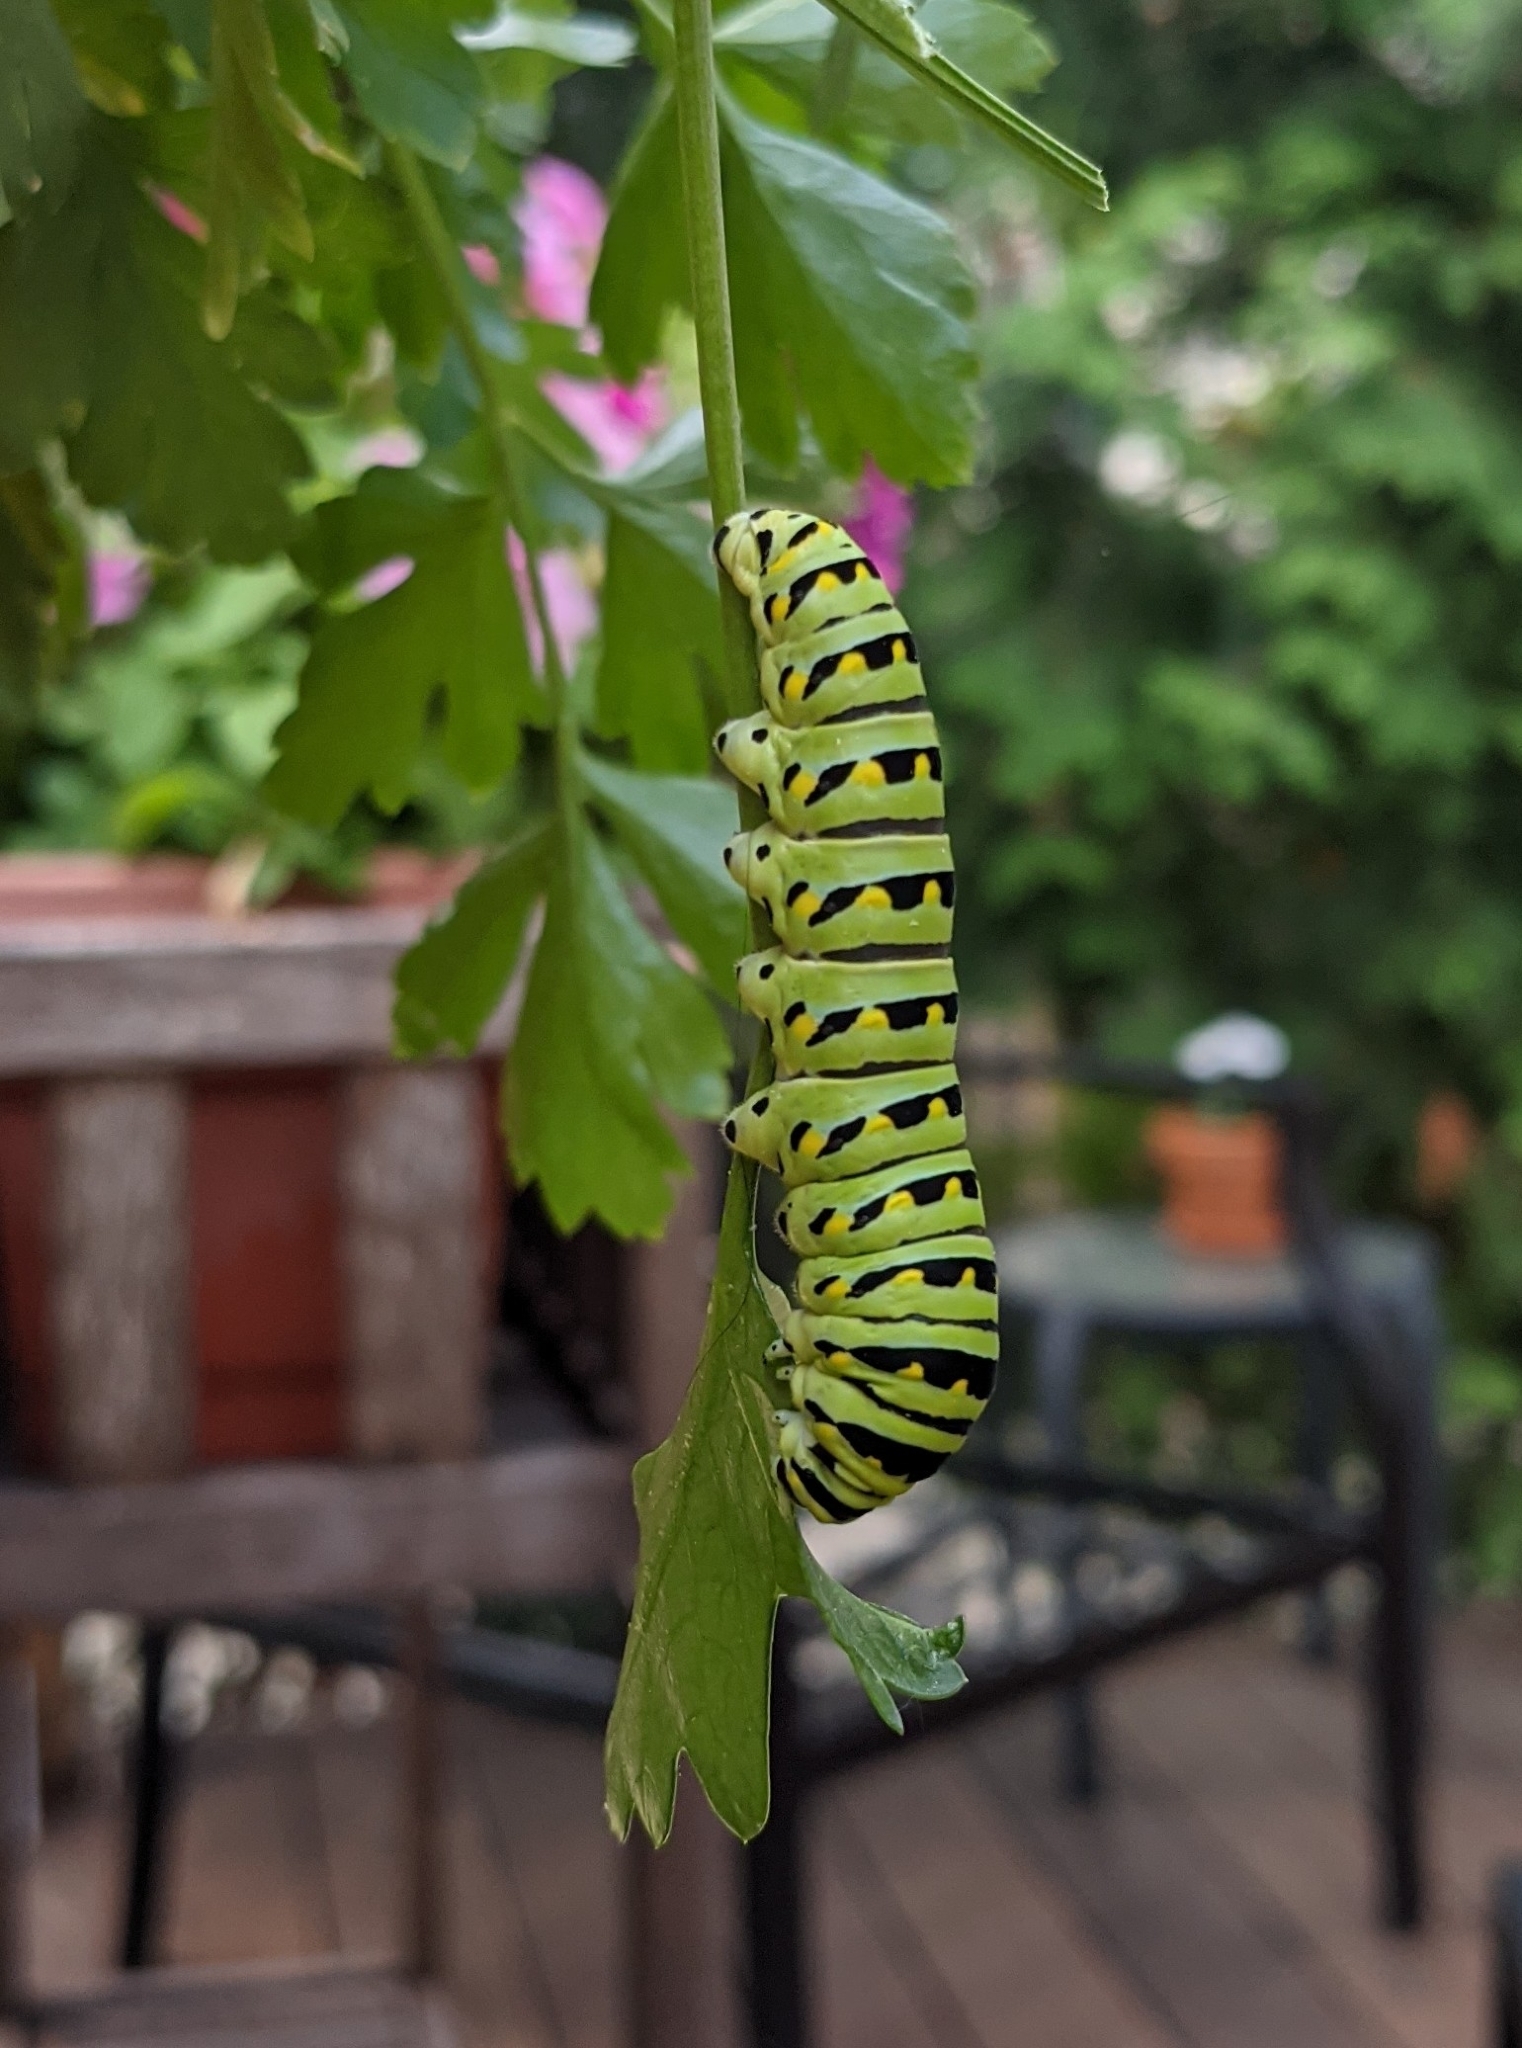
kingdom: Animalia
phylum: Arthropoda
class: Insecta
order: Lepidoptera
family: Papilionidae
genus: Papilio
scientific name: Papilio polyxenes
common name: Black swallowtail
